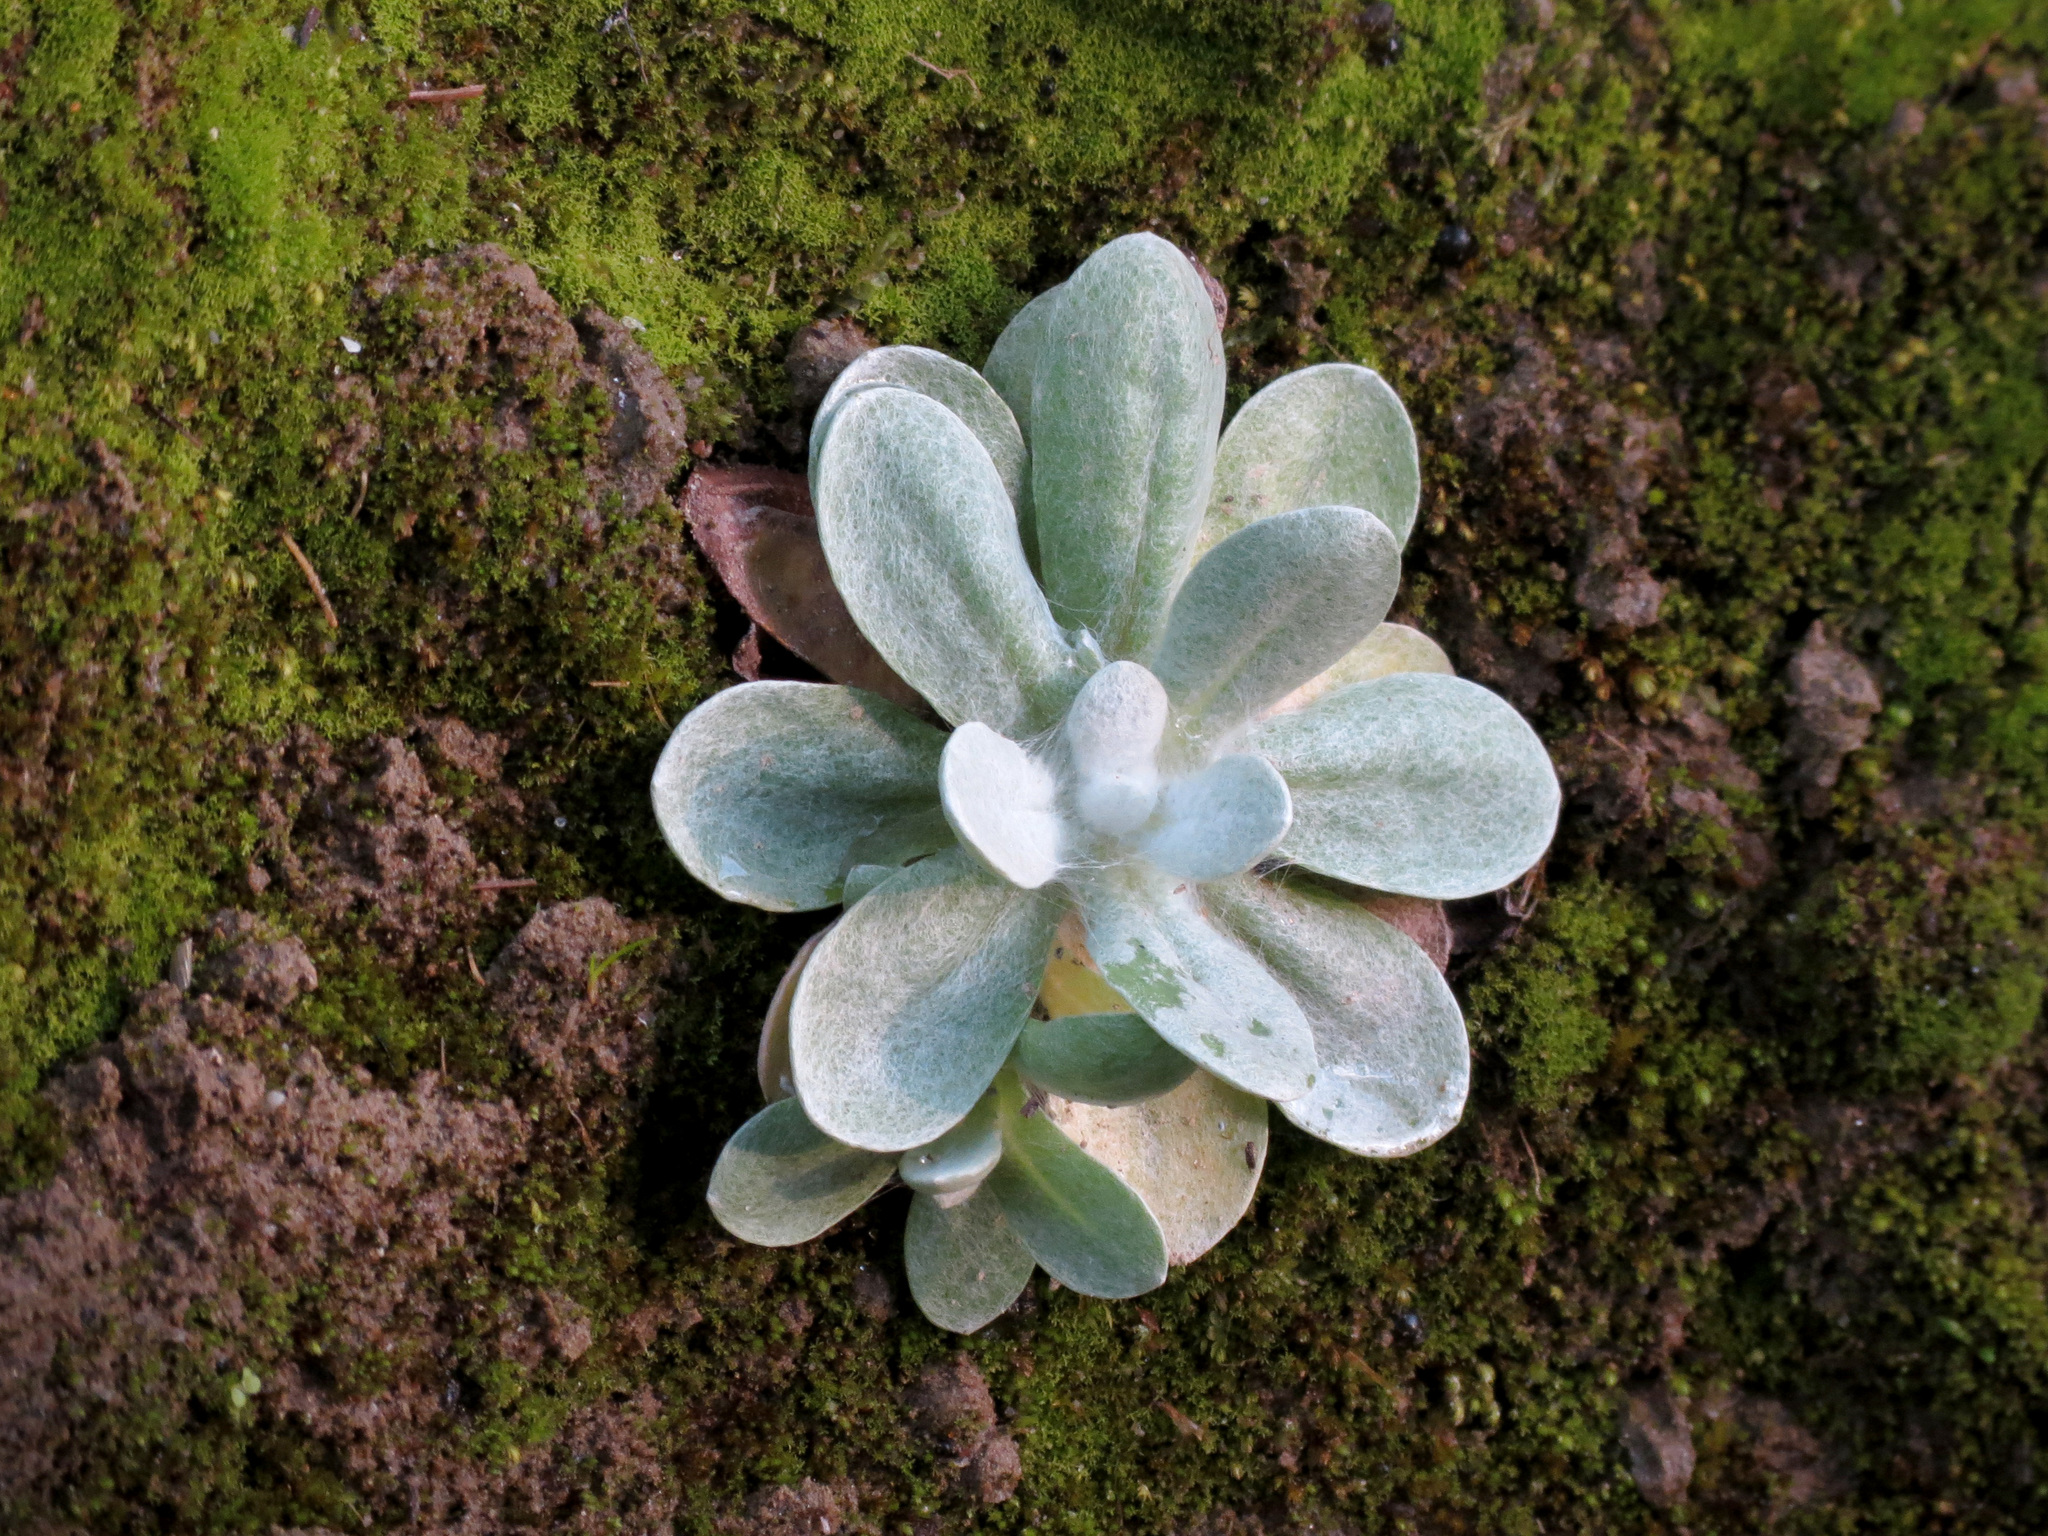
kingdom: Plantae
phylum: Tracheophyta
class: Magnoliopsida
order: Asterales
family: Asteraceae
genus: Helichrysum
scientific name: Helichrysum luteoalbum
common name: Daisy
